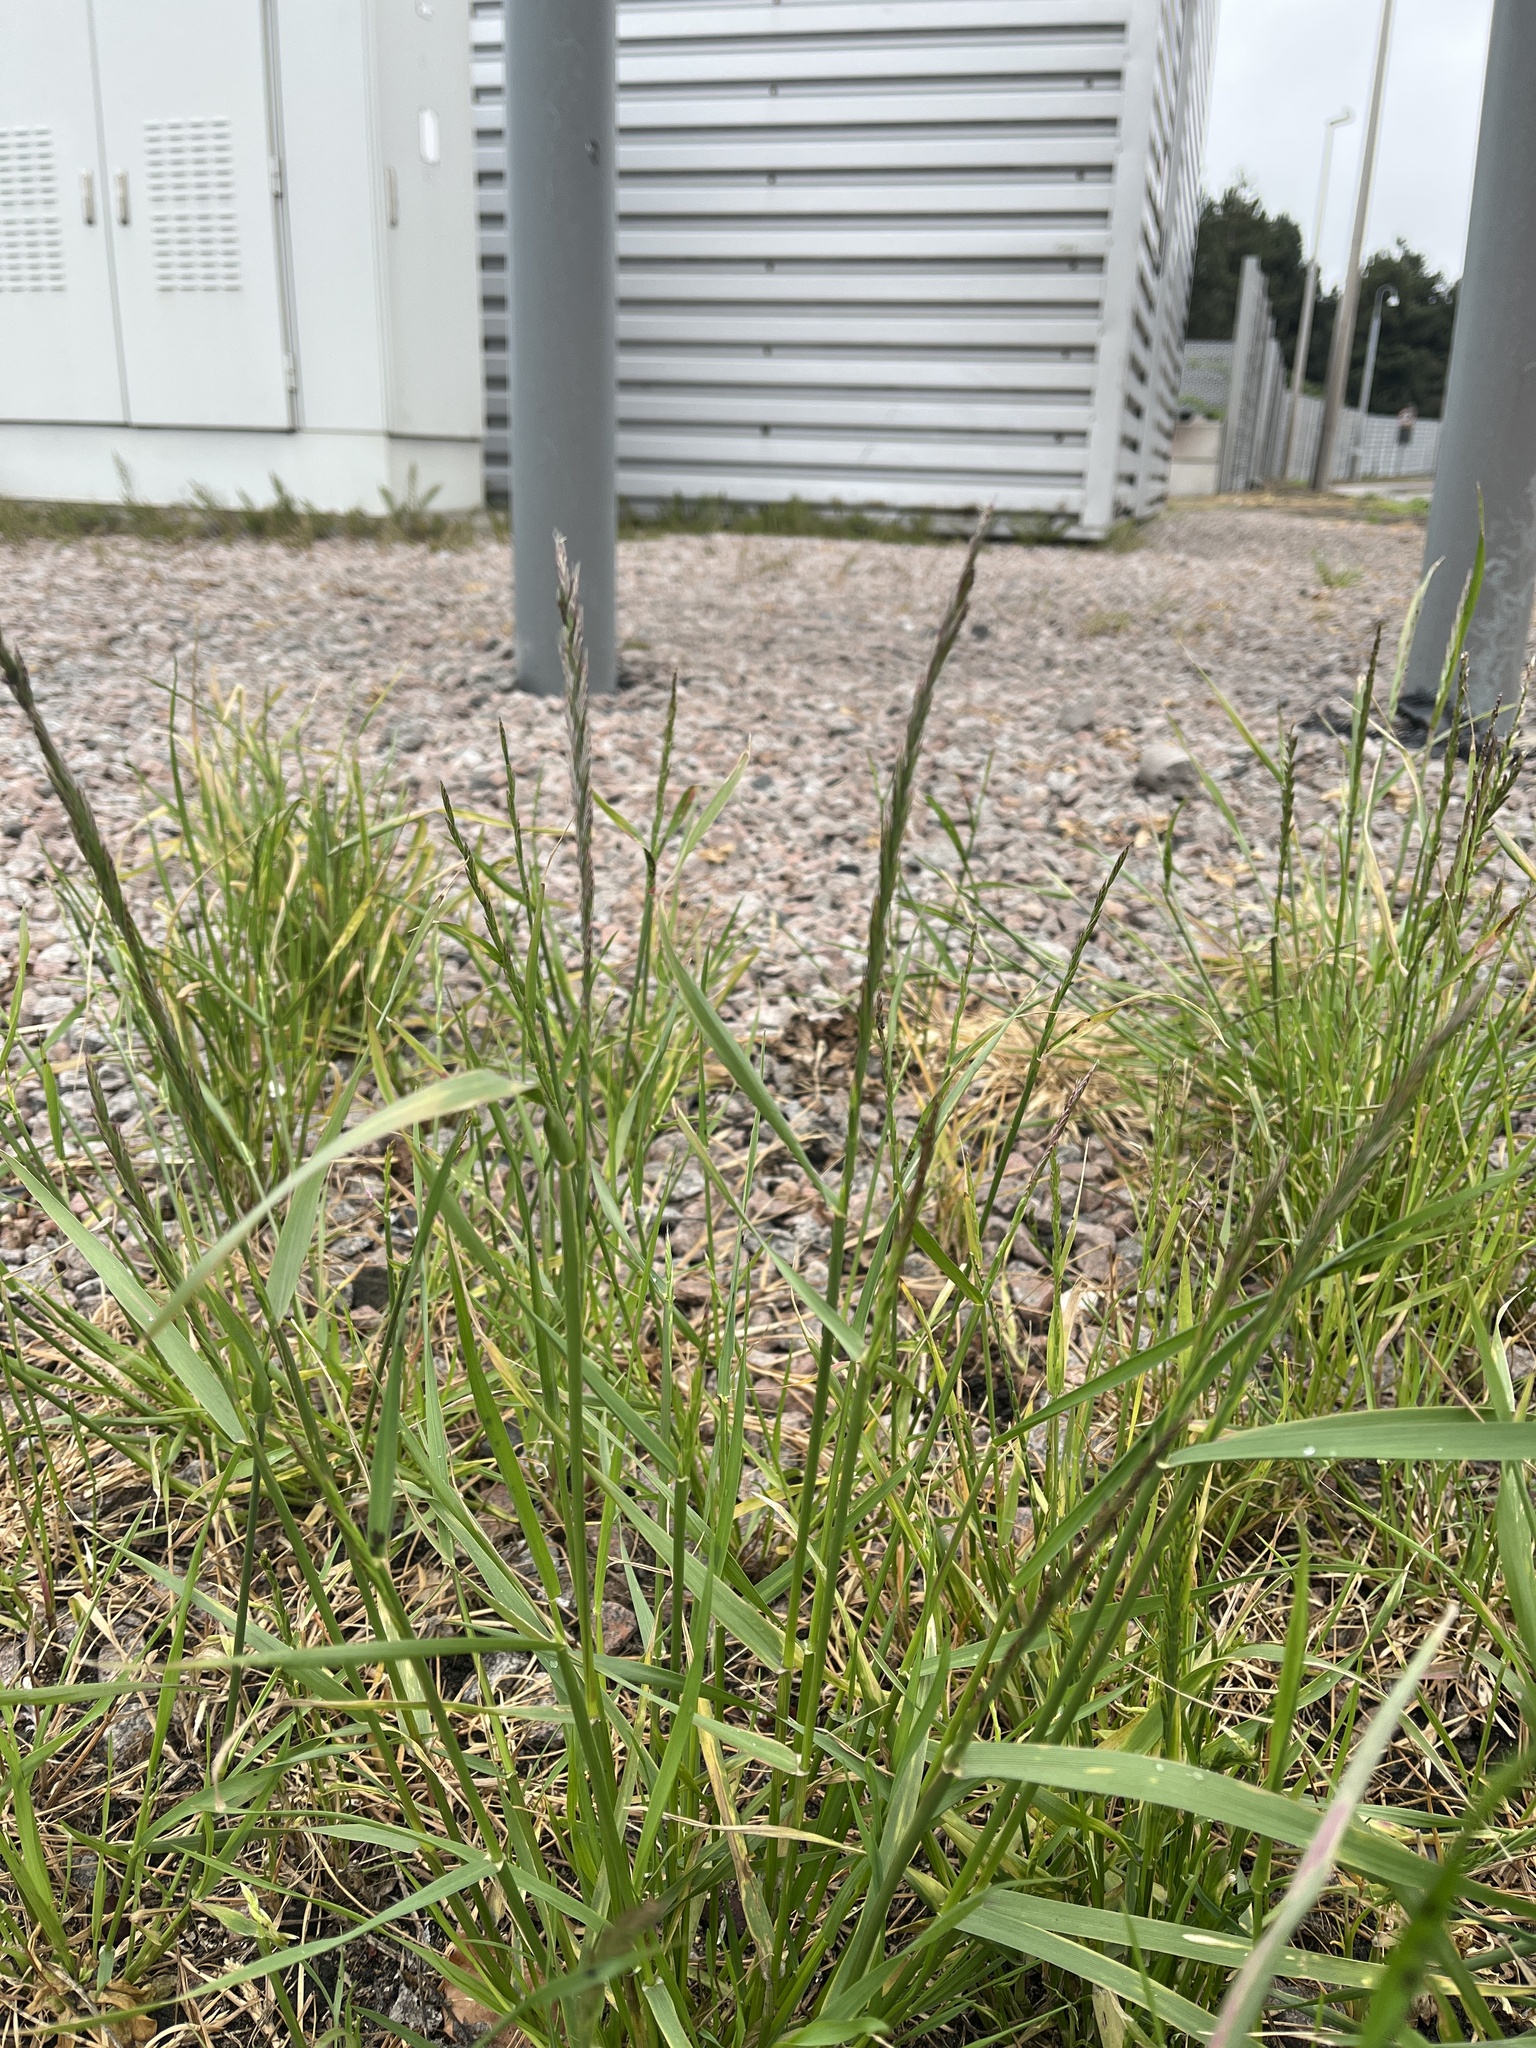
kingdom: Plantae
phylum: Tracheophyta
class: Liliopsida
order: Poales
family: Poaceae
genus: Lolium
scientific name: Lolium perenne
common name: Perennial ryegrass
